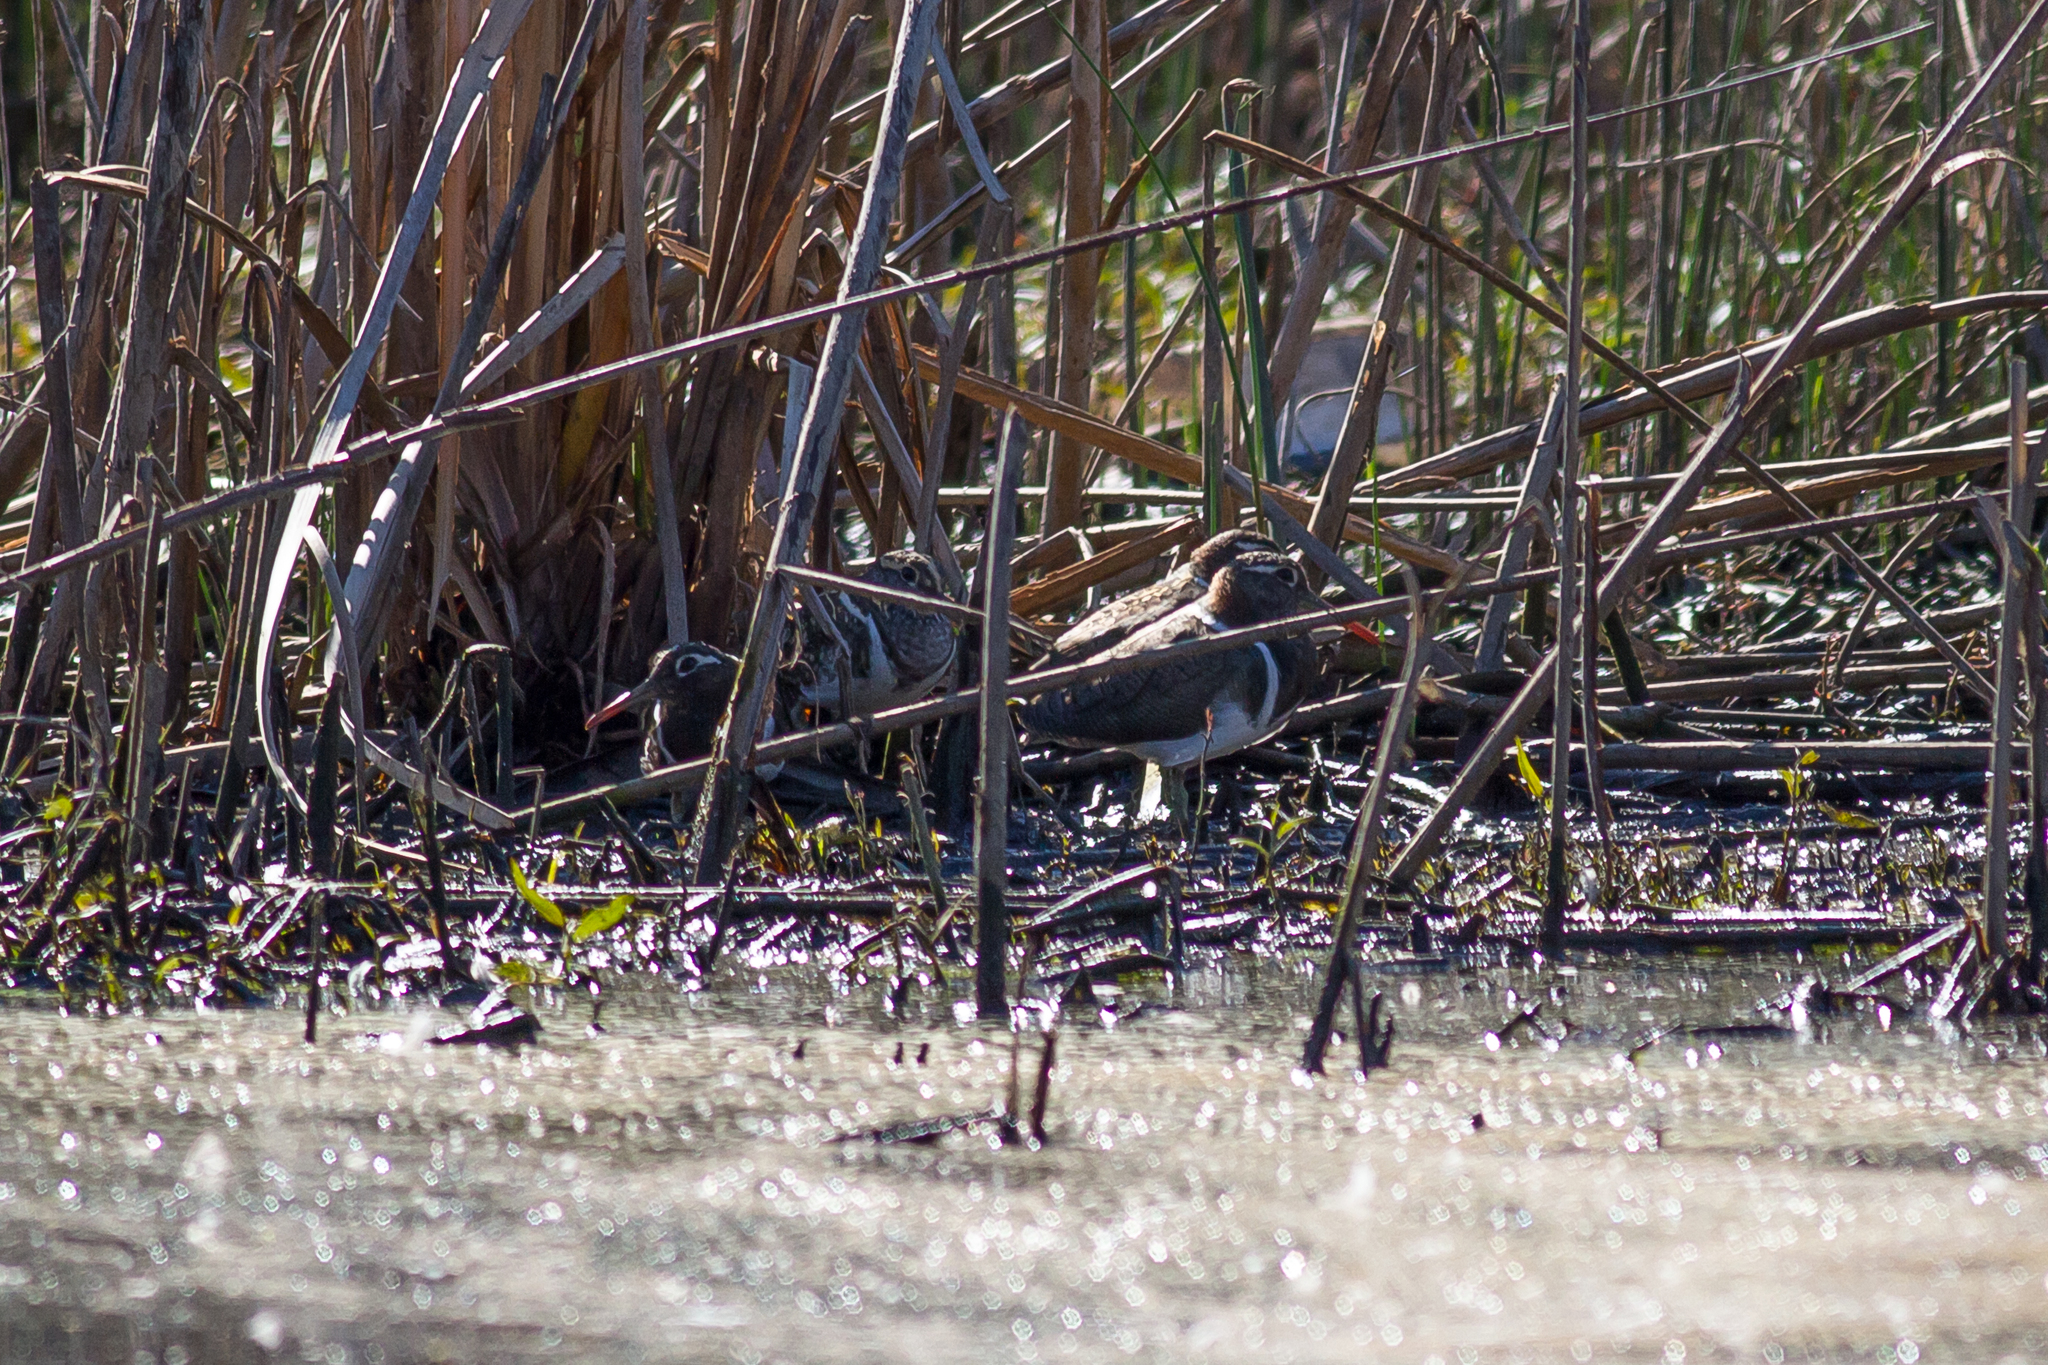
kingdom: Animalia
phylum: Chordata
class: Aves
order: Charadriiformes
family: Rostratulidae
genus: Rostratula
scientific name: Rostratula australis
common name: Australian painted-snipe
